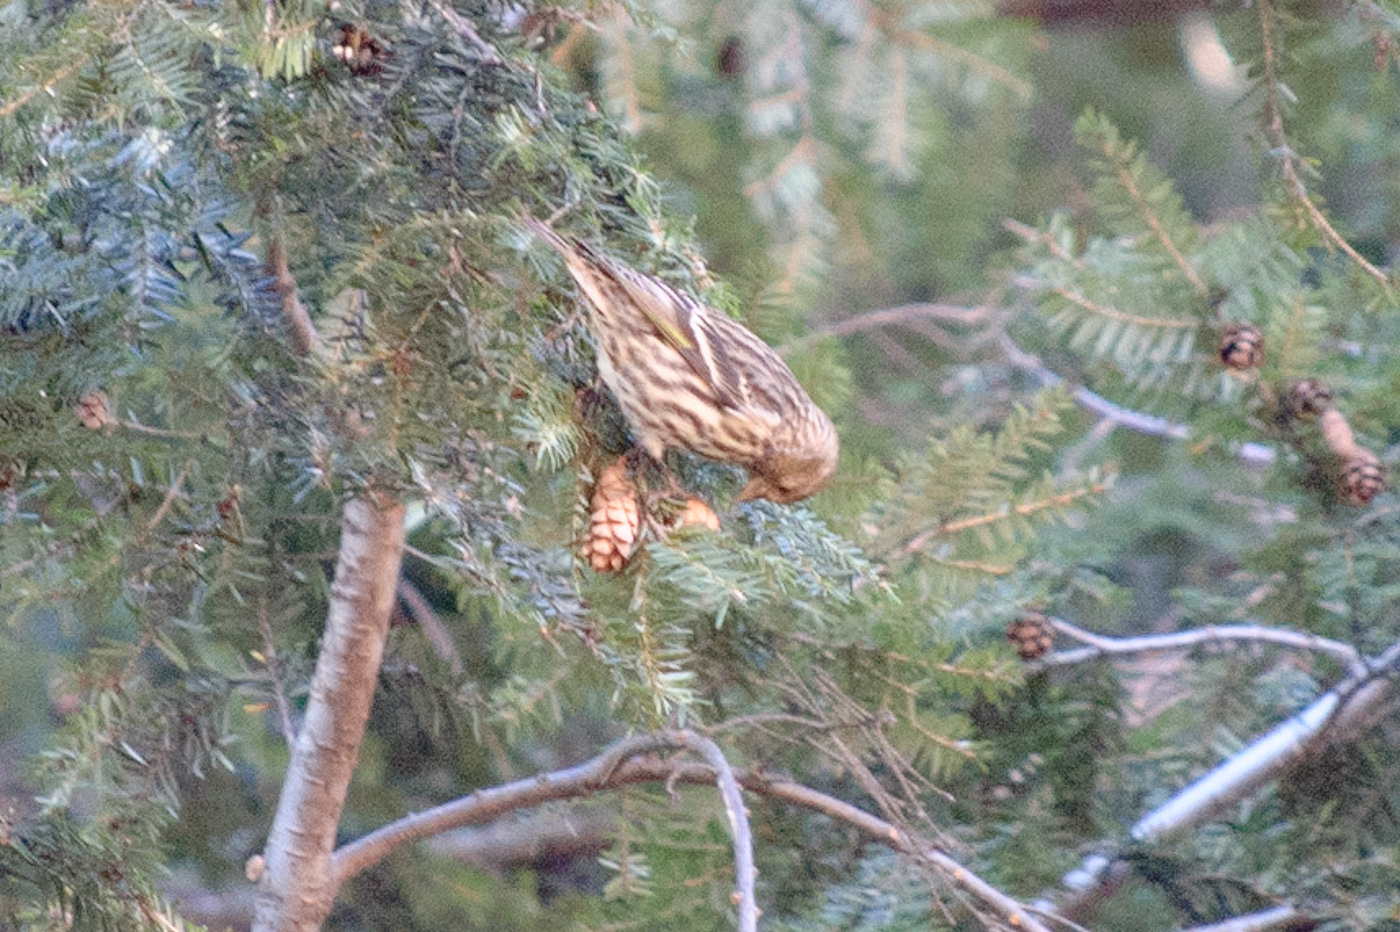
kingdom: Animalia
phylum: Chordata
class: Aves
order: Passeriformes
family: Fringillidae
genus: Spinus
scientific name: Spinus pinus
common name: Pine siskin
